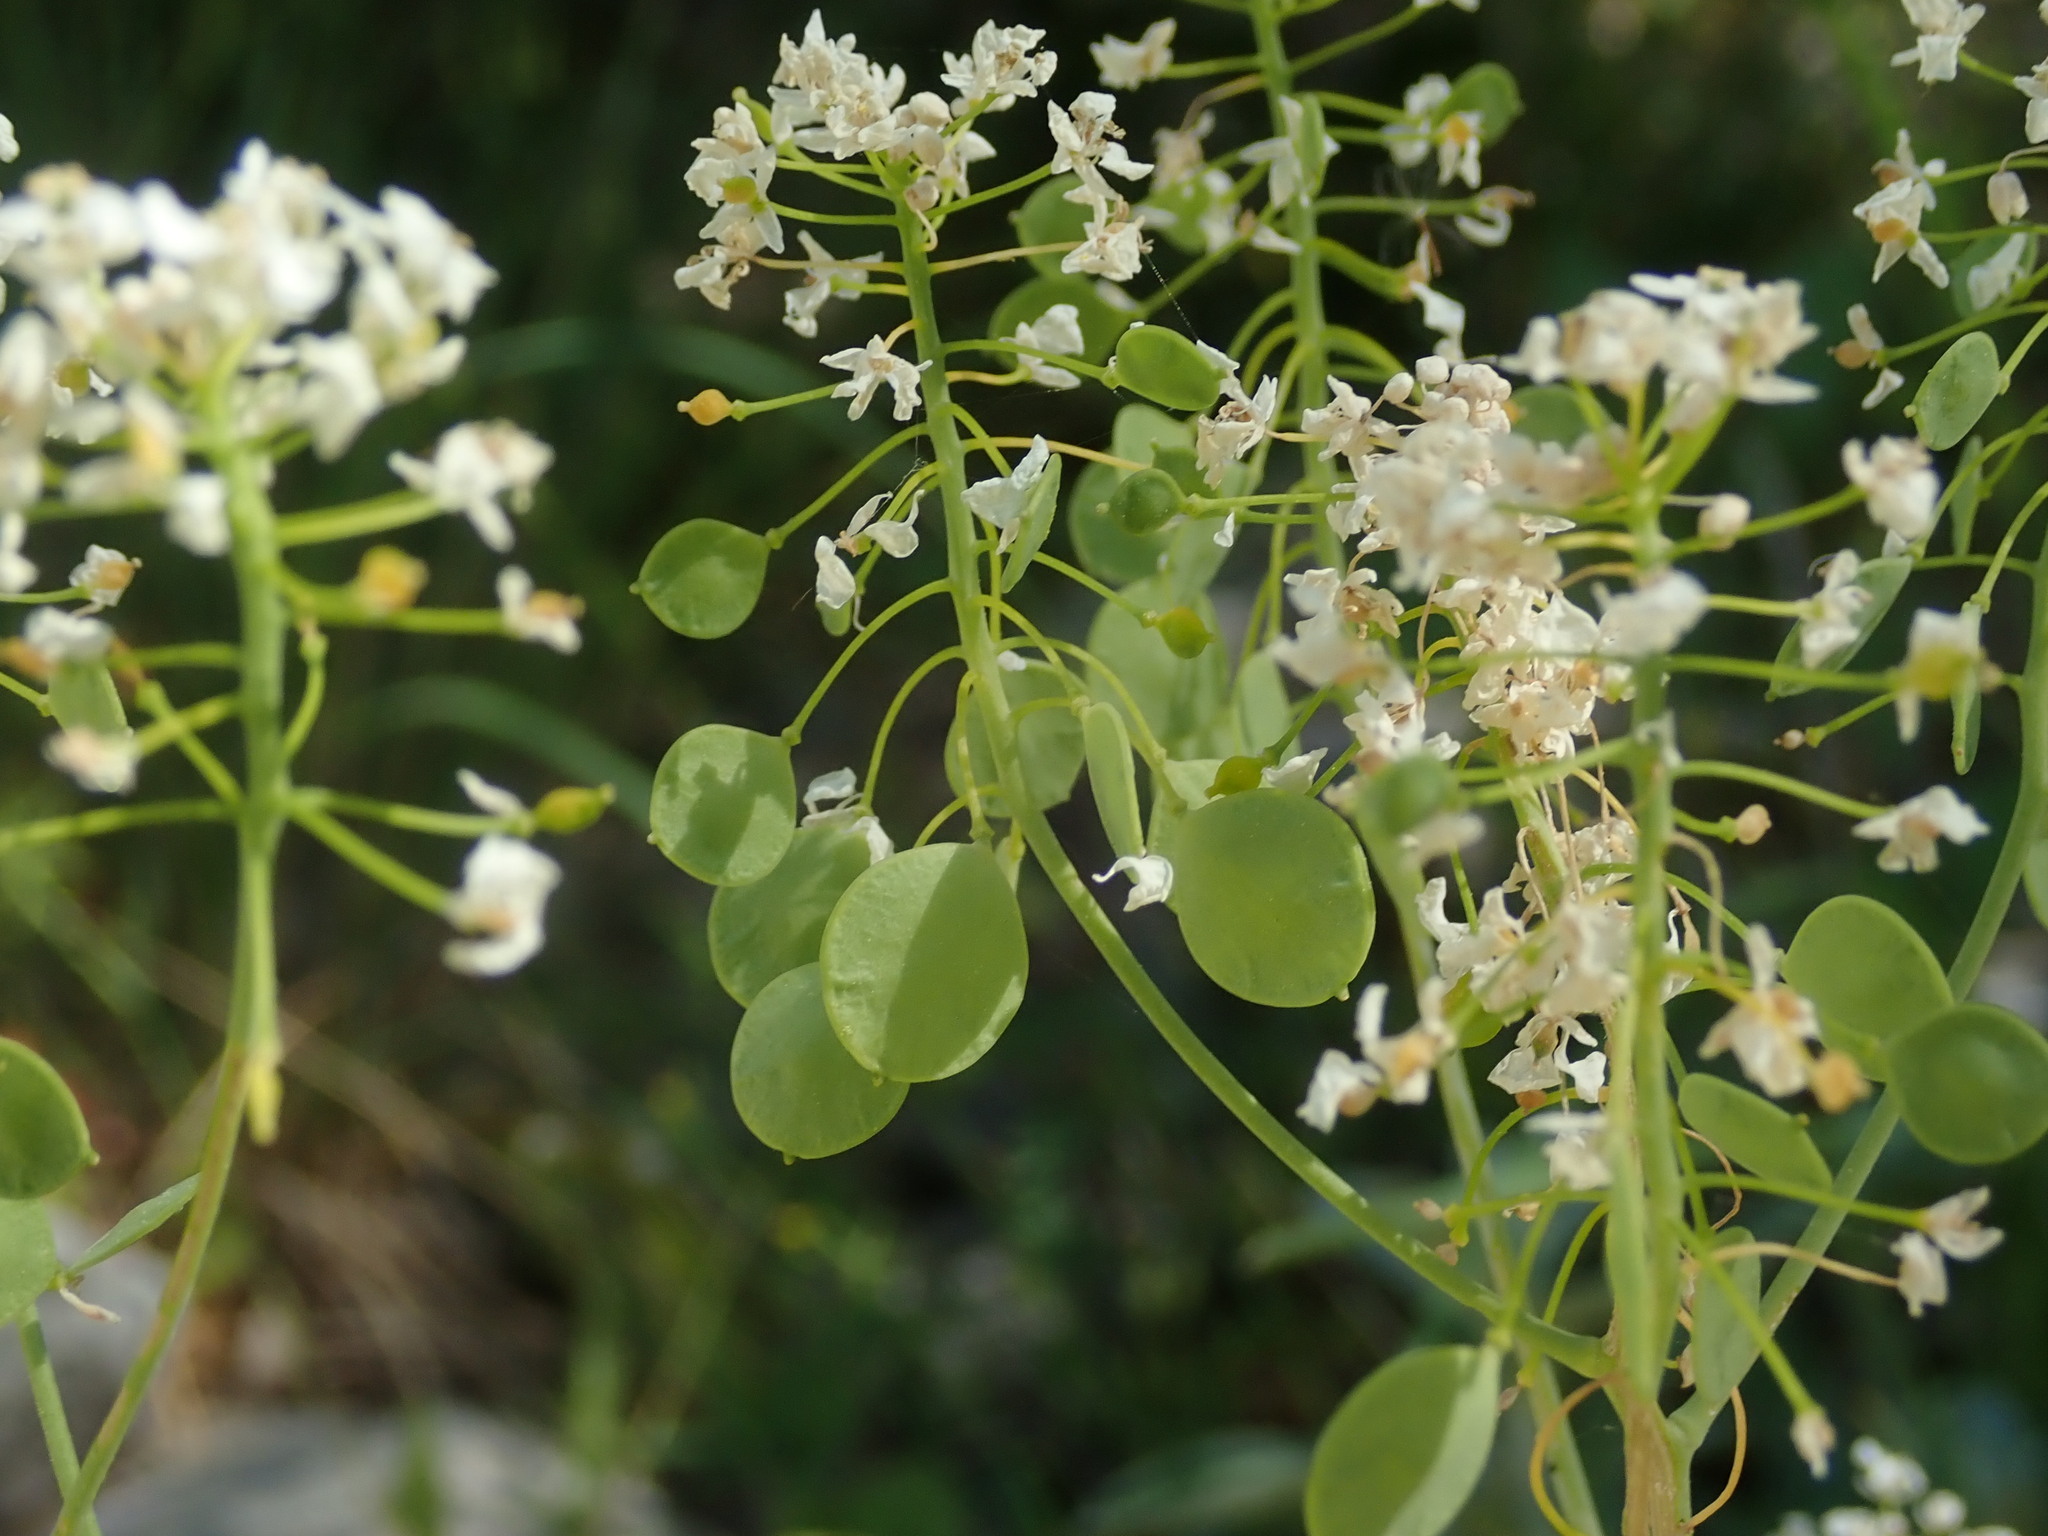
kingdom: Plantae
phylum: Tracheophyta
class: Magnoliopsida
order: Brassicales
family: Brassicaceae
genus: Peltaria
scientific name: Peltaria alliacea
